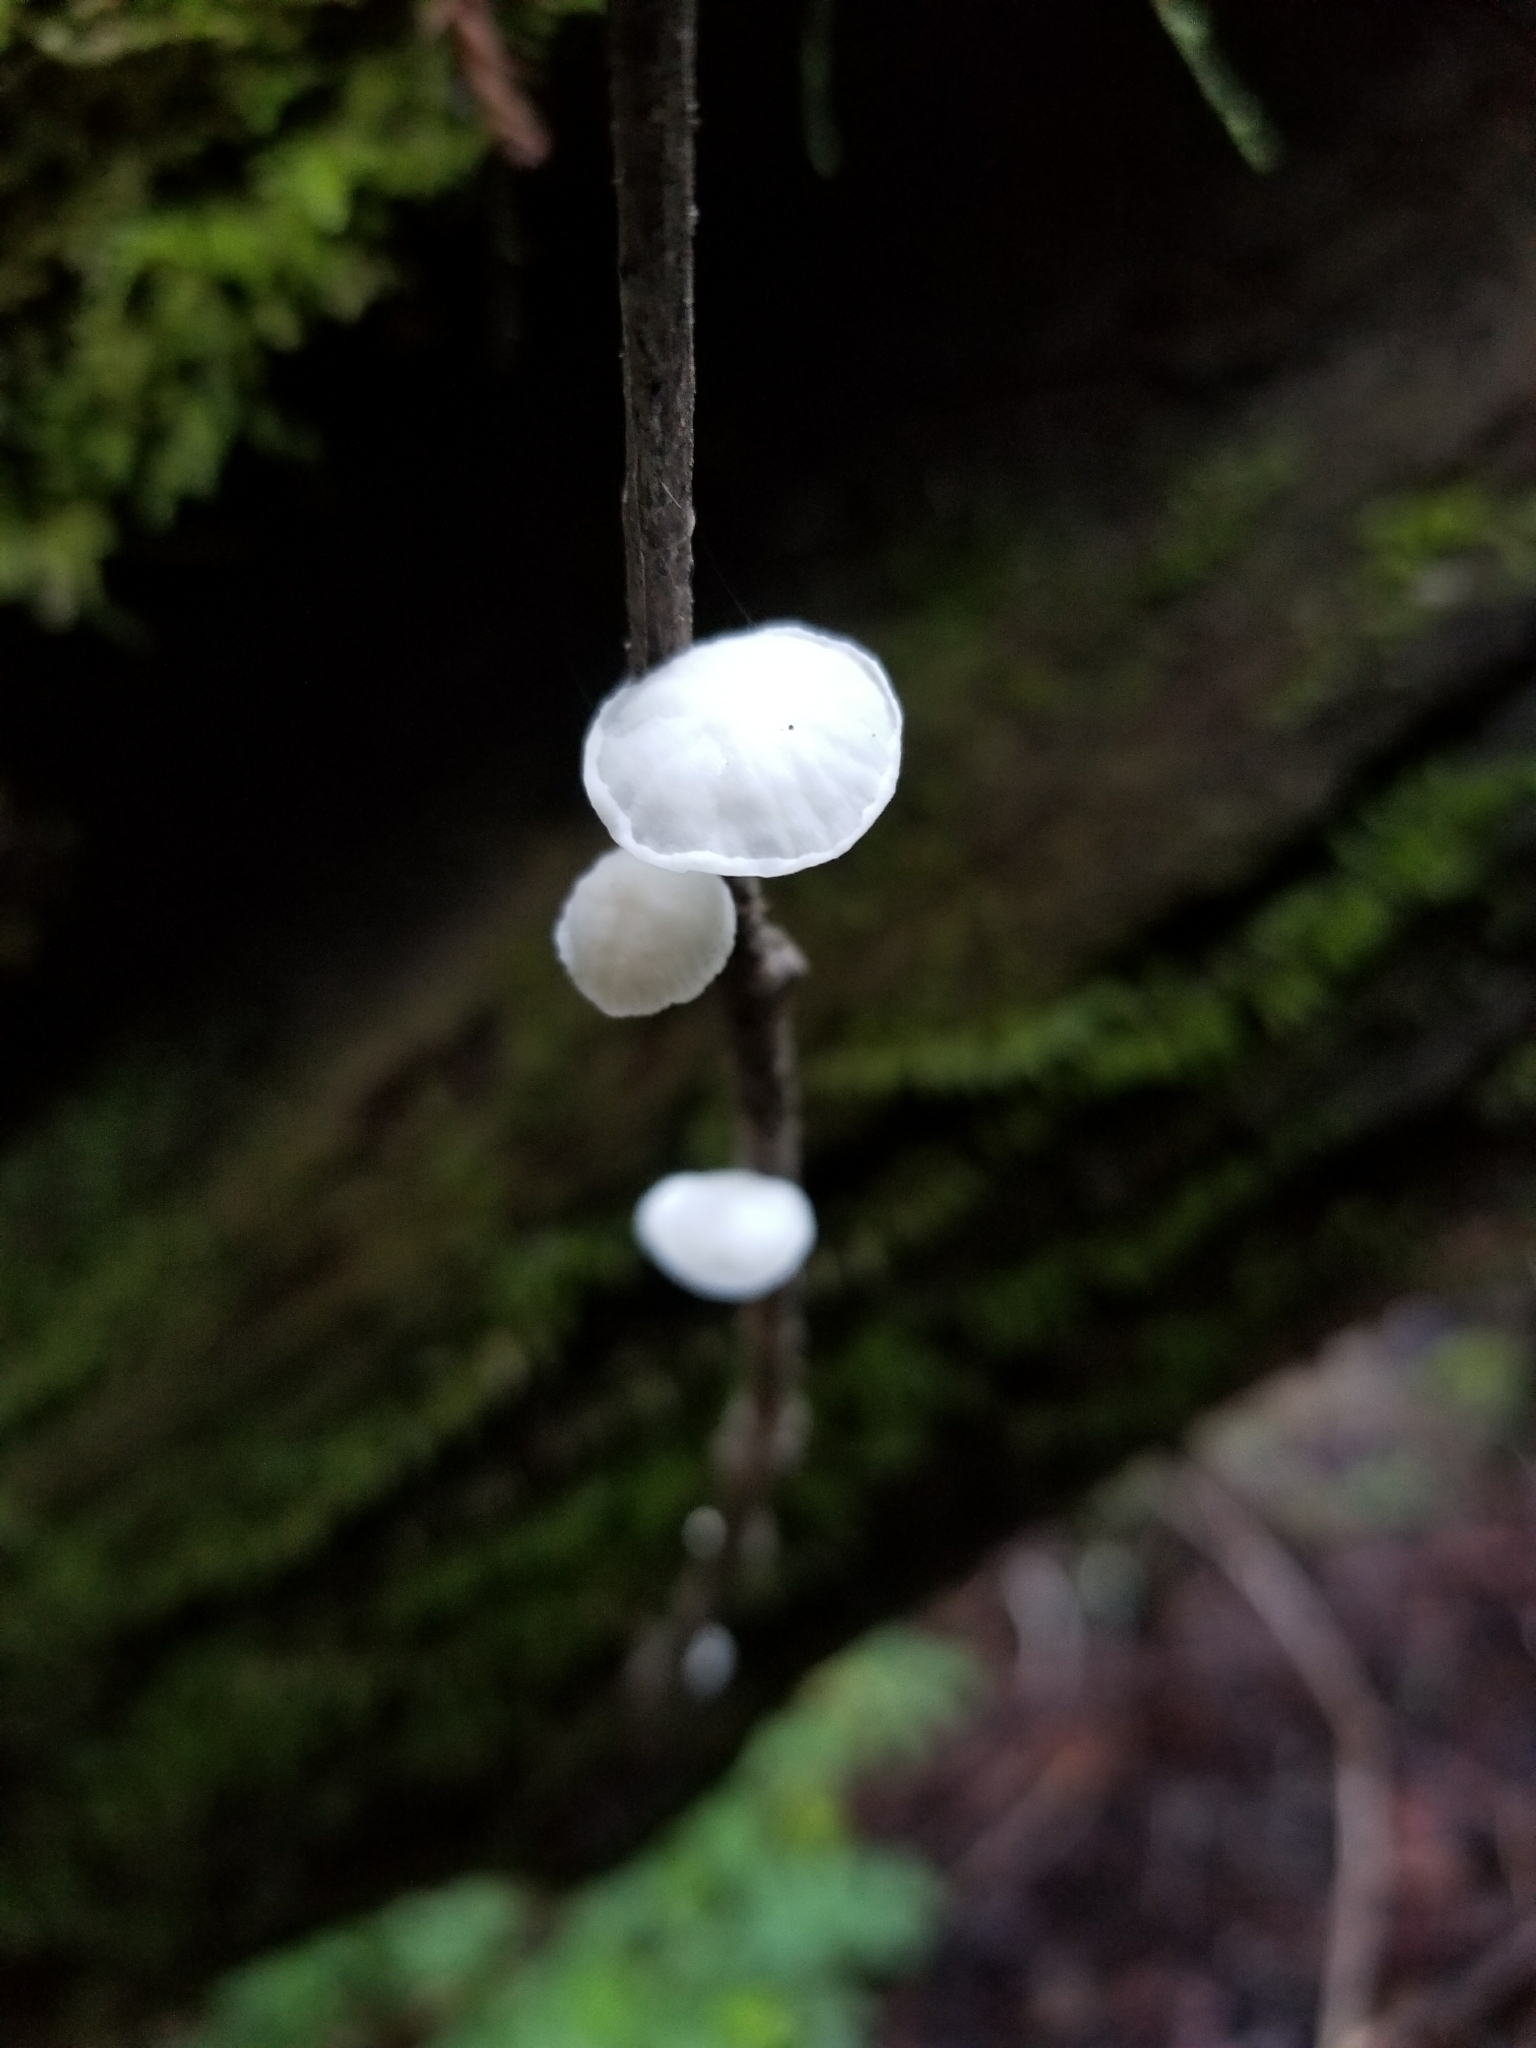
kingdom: Fungi
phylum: Basidiomycota
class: Agaricomycetes
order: Agaricales
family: Omphalotaceae
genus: Marasmiellus
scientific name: Marasmiellus candidus
